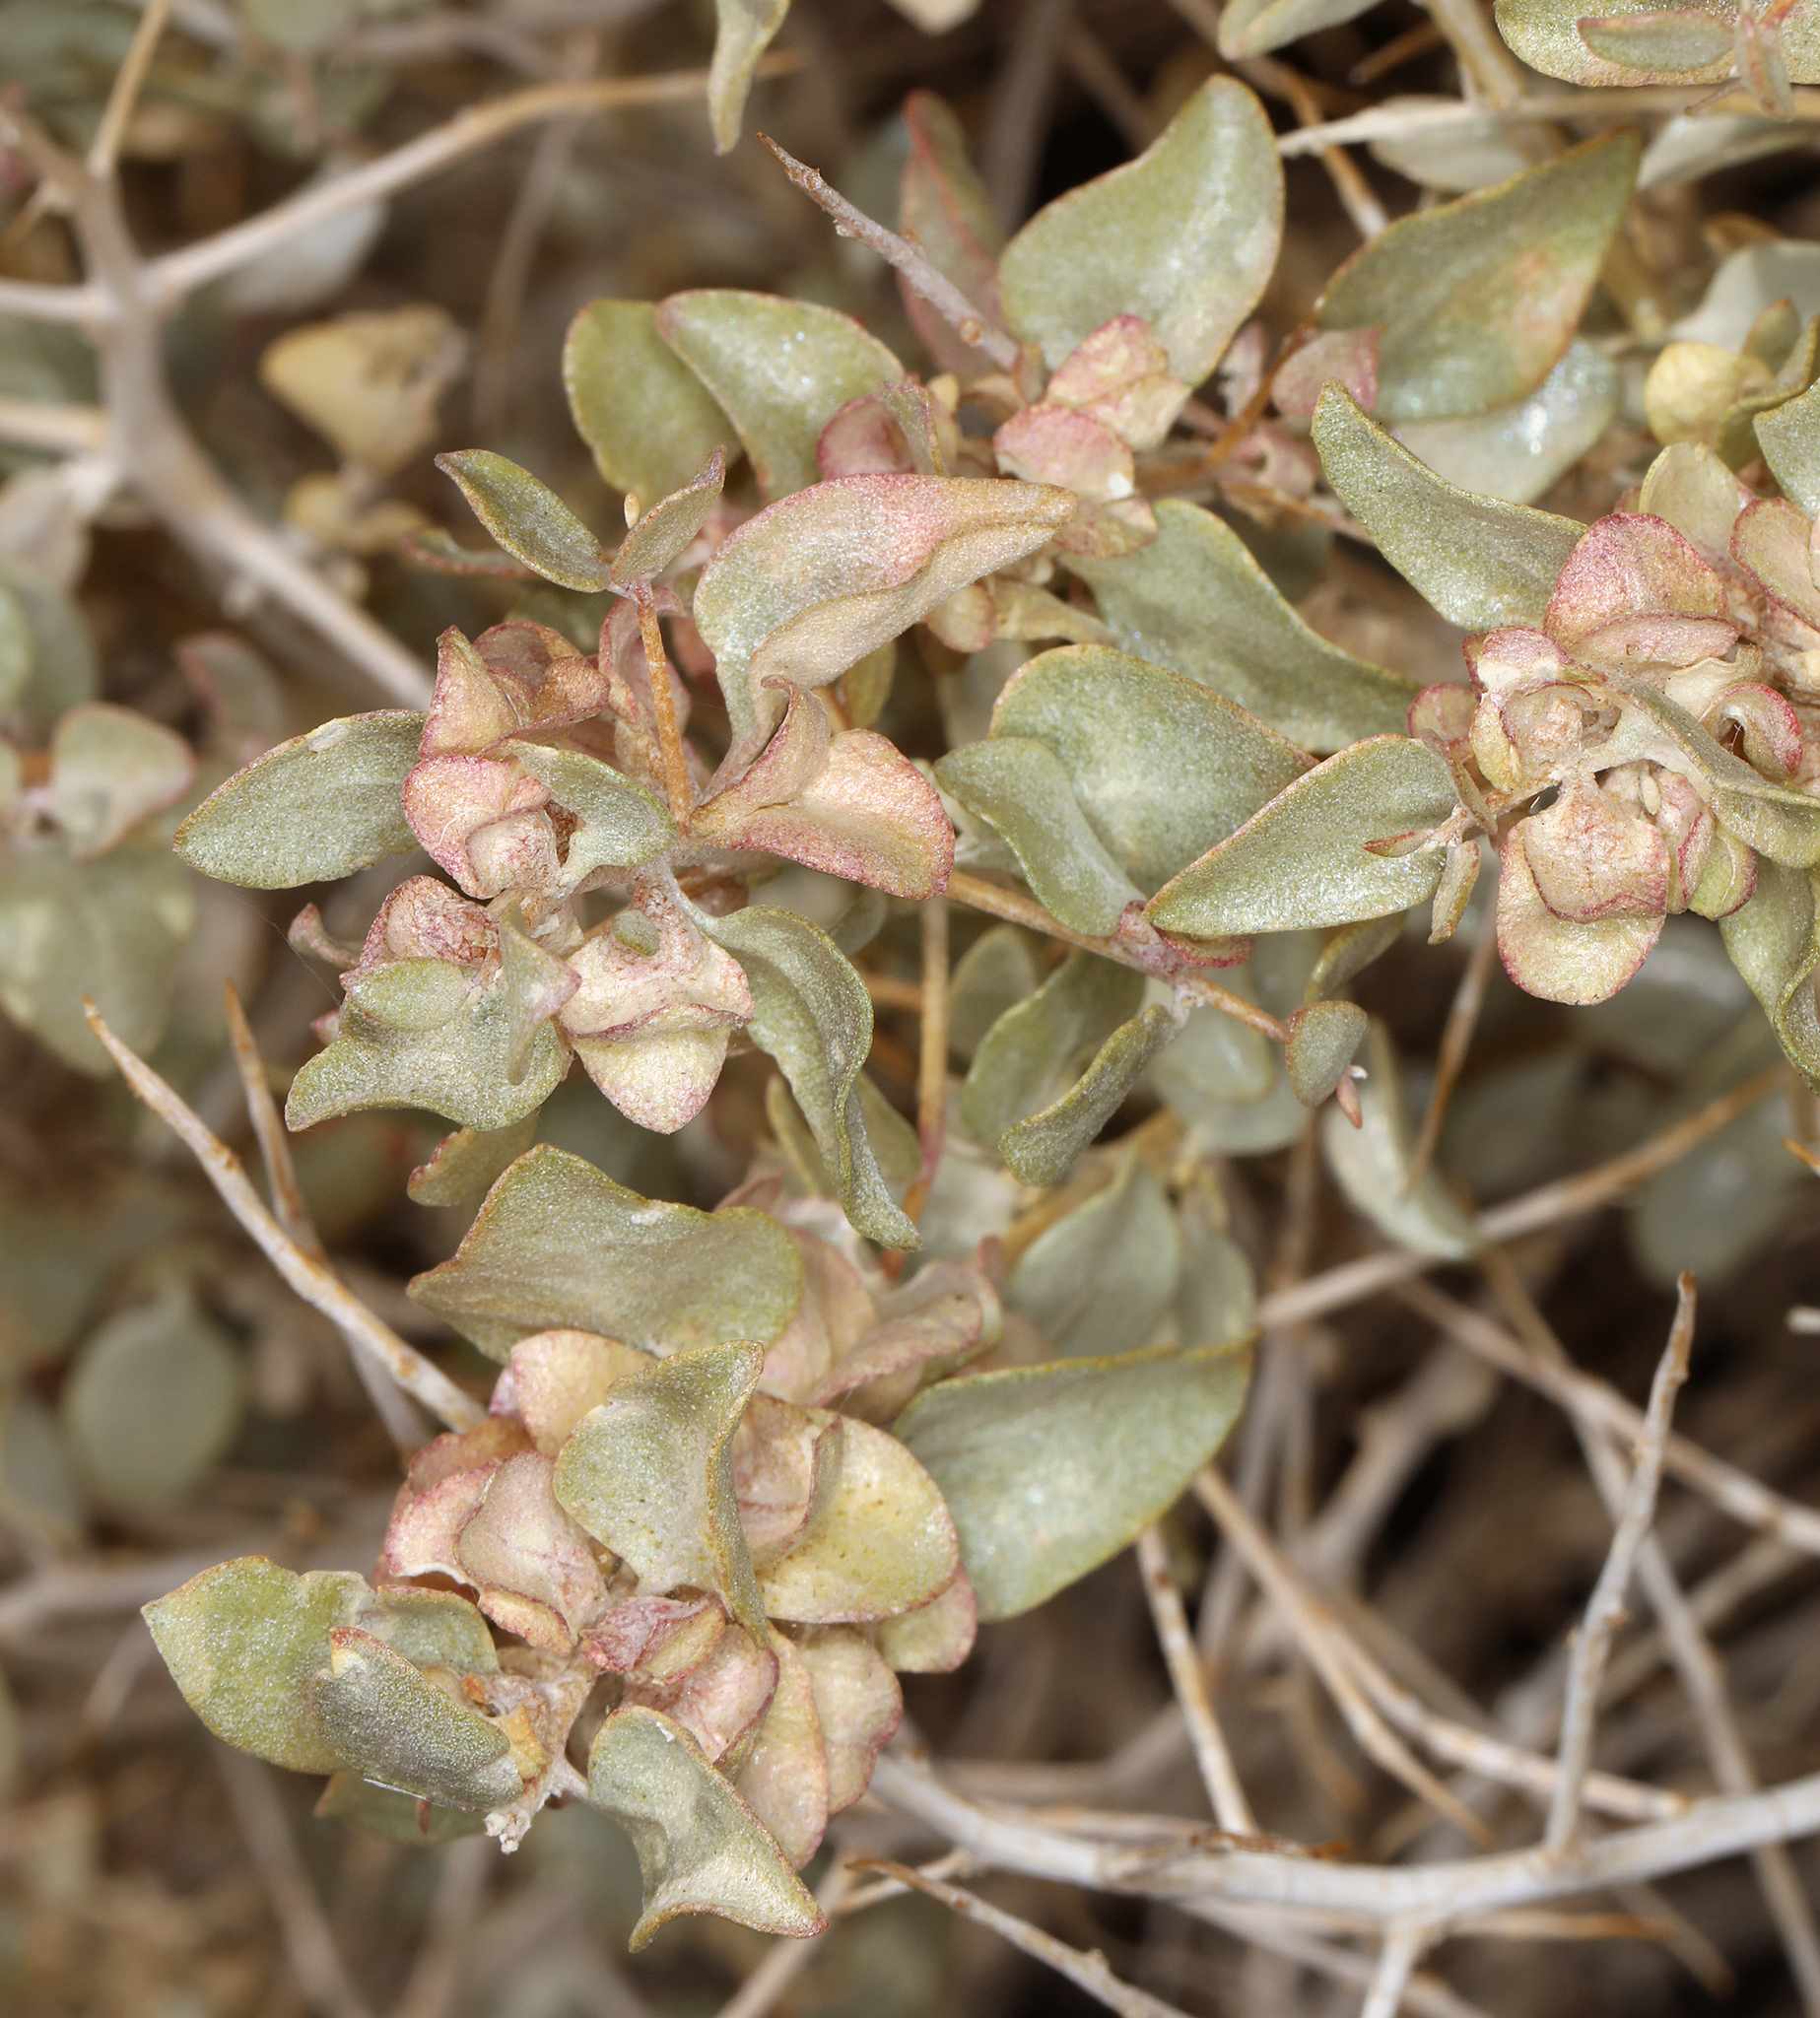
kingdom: Plantae
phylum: Tracheophyta
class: Magnoliopsida
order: Caryophyllales
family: Amaranthaceae
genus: Atriplex
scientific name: Atriplex confertifolia
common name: Shadscale
